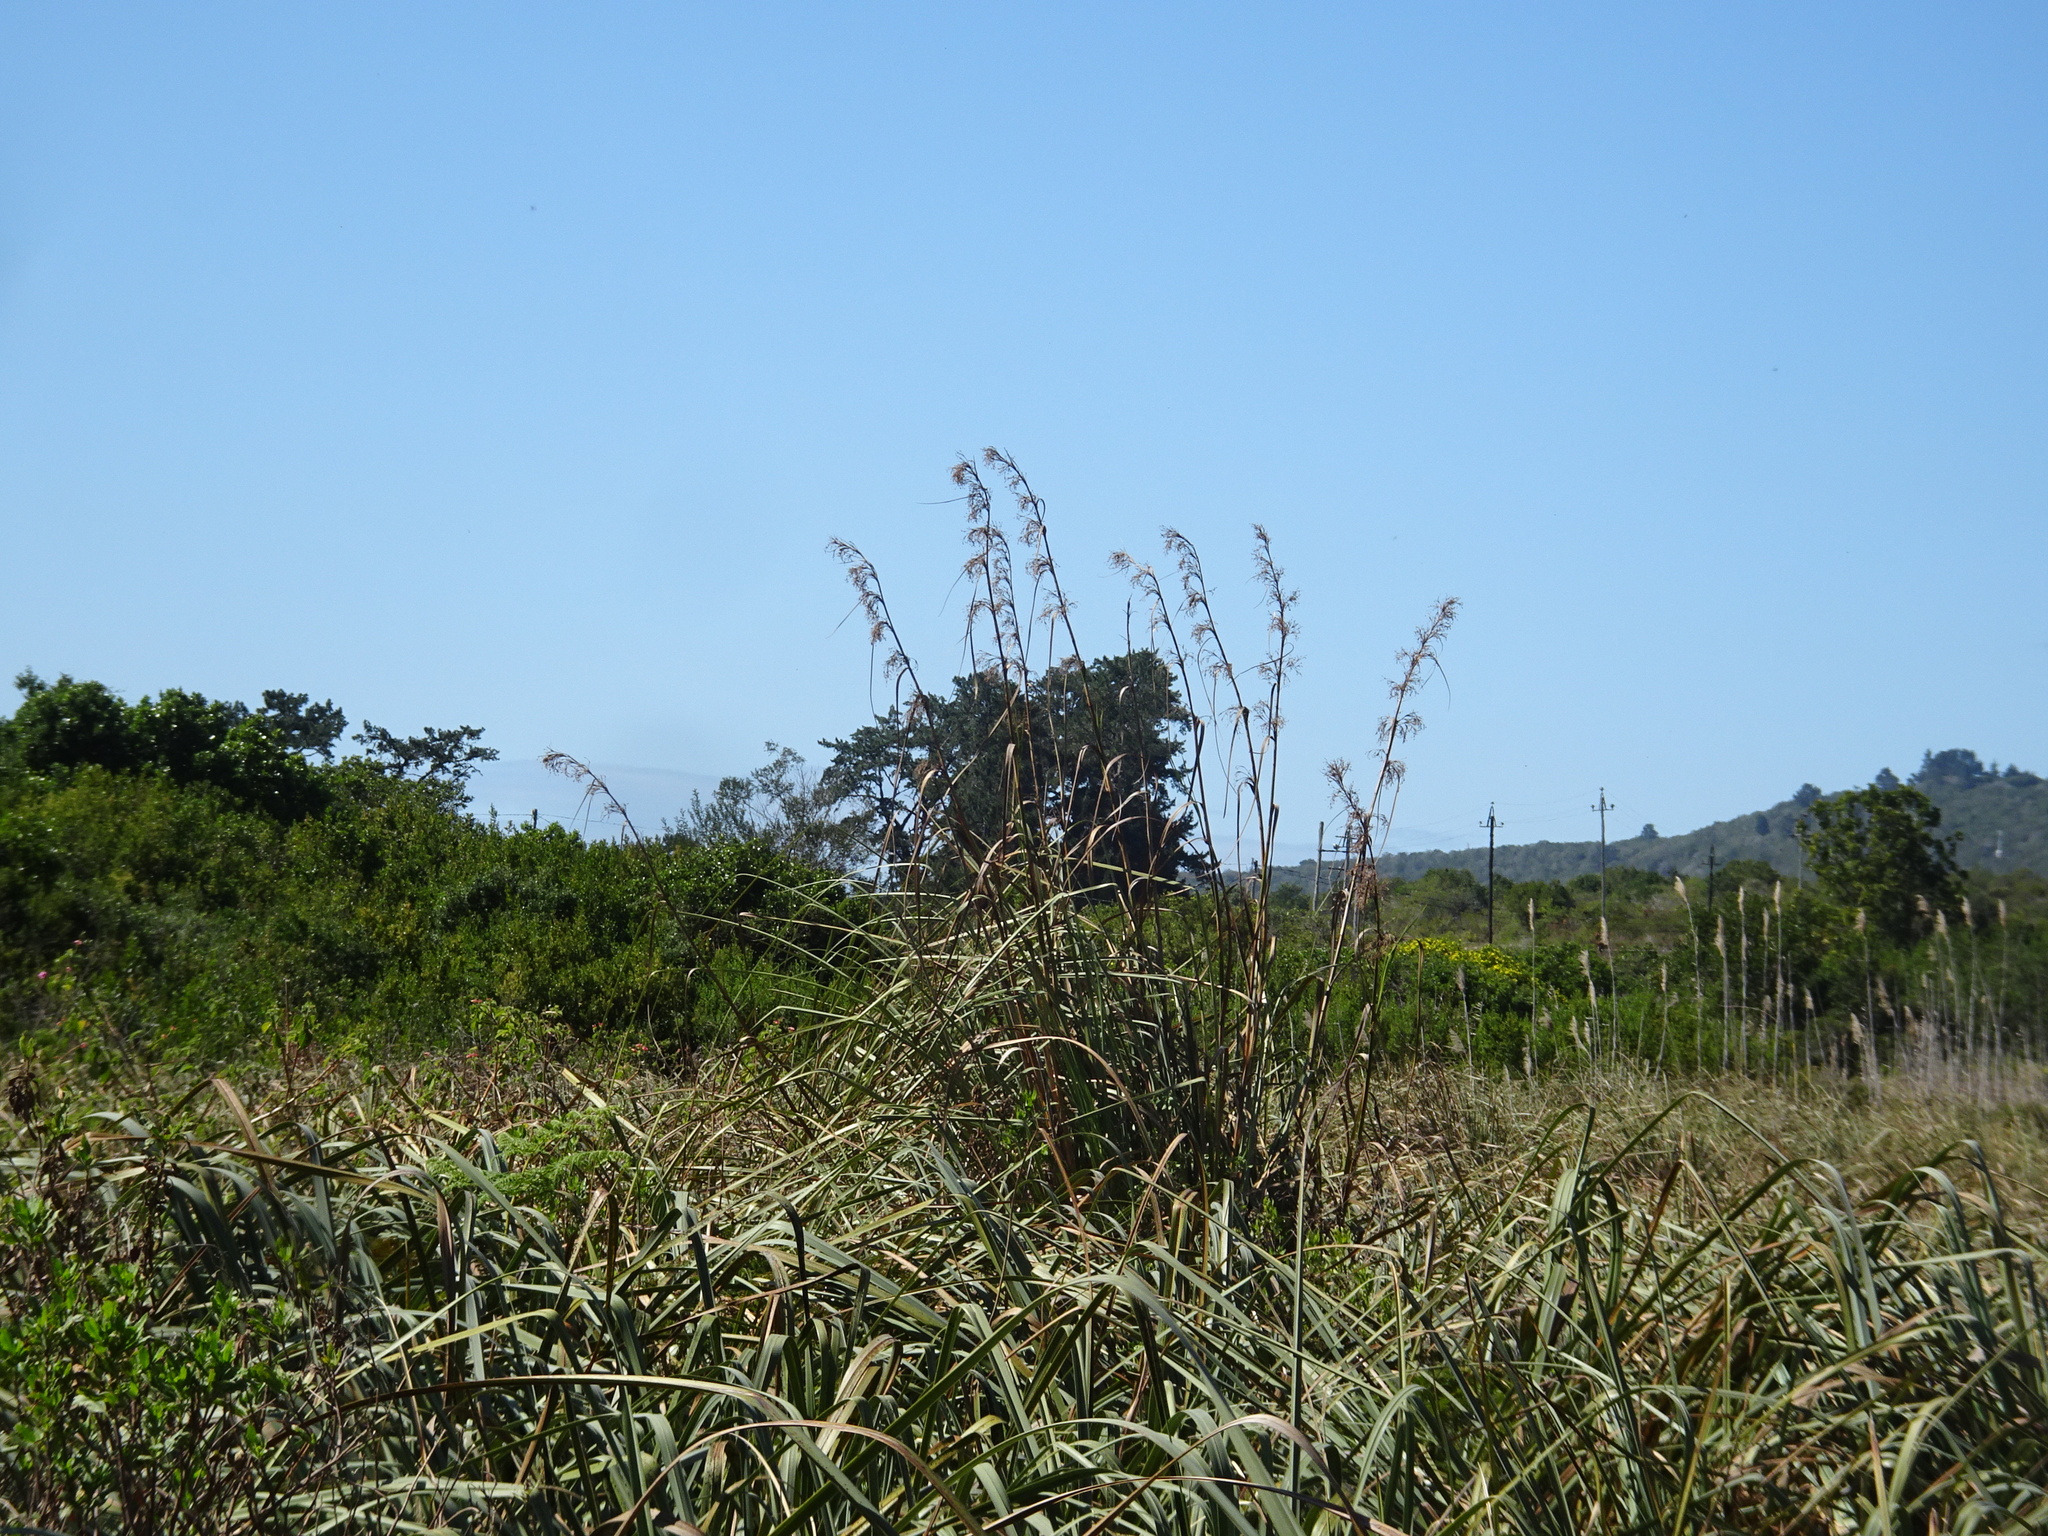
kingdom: Plantae
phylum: Tracheophyta
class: Liliopsida
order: Poales
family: Cyperaceae
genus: Cladium
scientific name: Cladium mariscus
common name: Great fen-sedge
